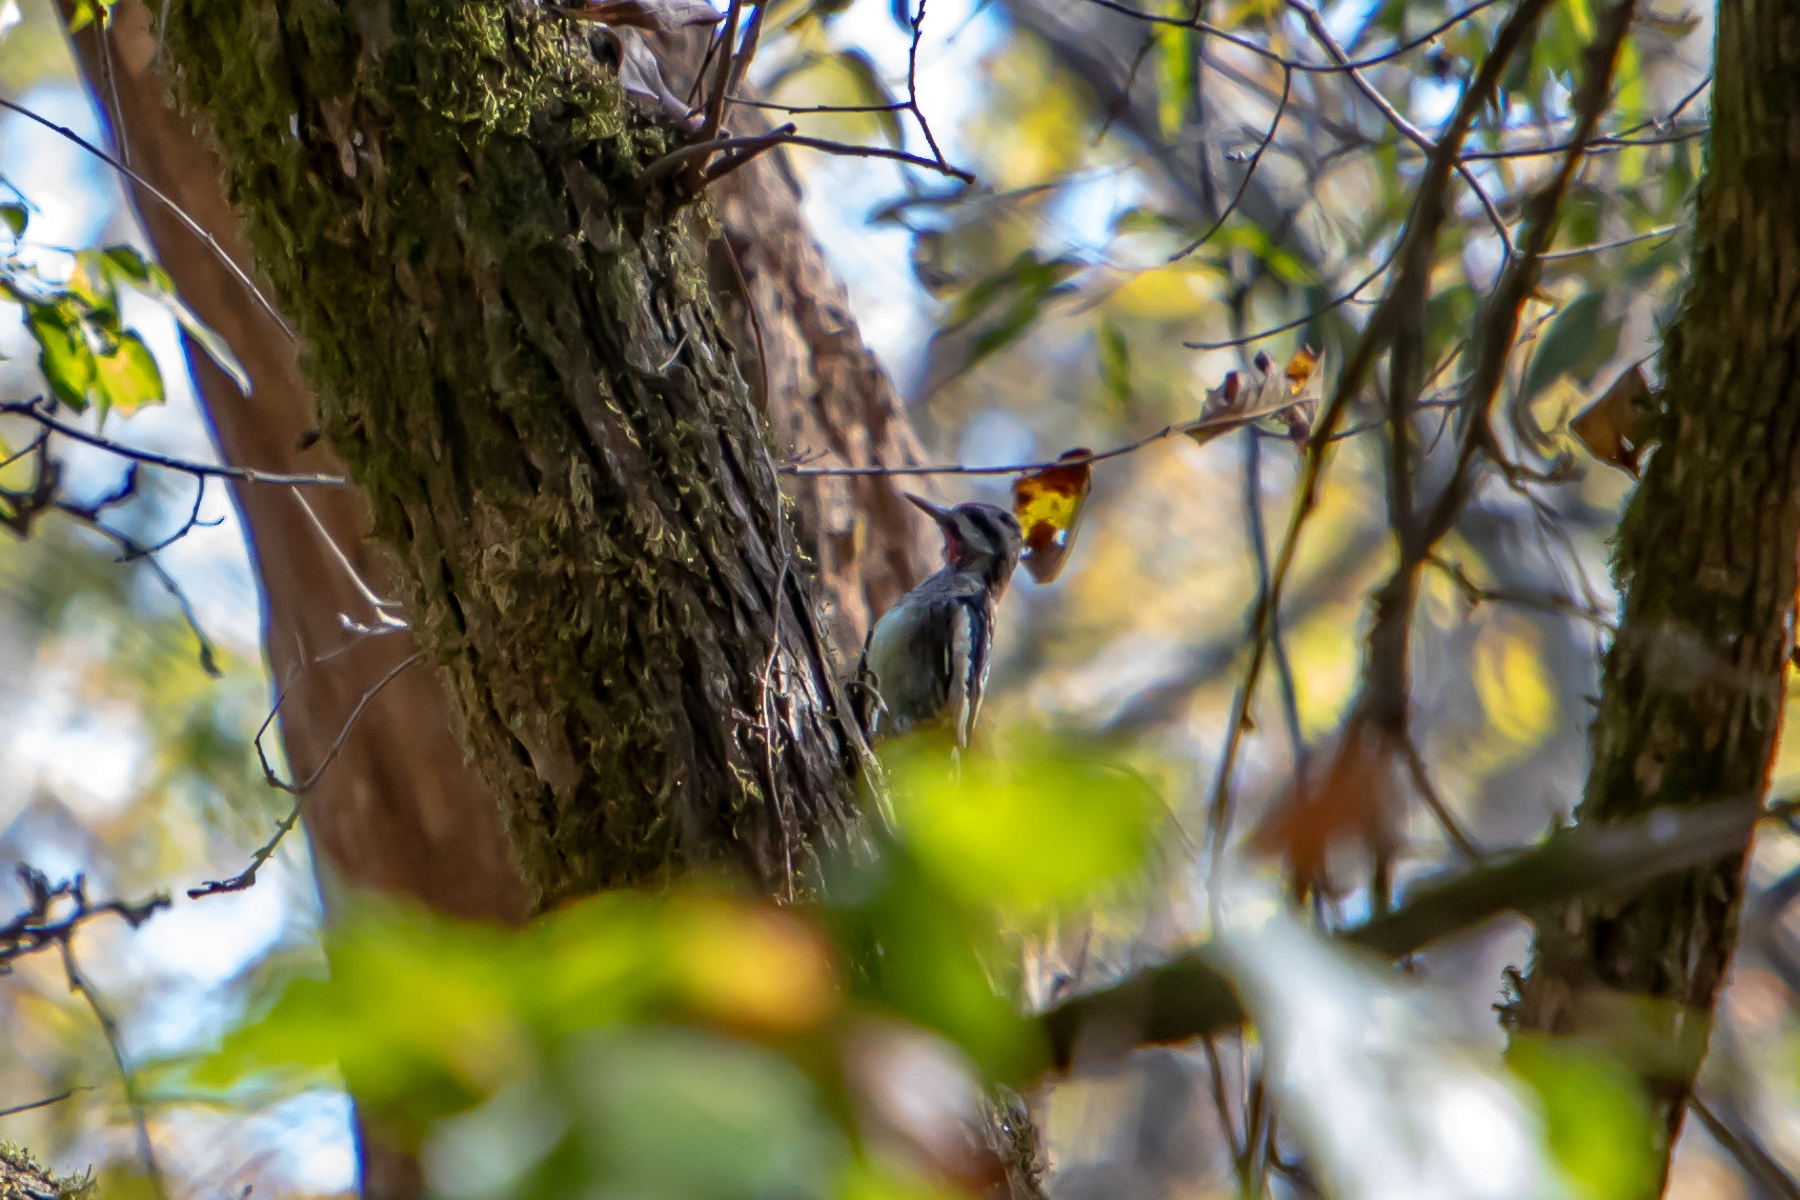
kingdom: Animalia
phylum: Chordata
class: Aves
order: Piciformes
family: Picidae
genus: Sphyrapicus
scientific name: Sphyrapicus varius
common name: Yellow-bellied sapsucker
